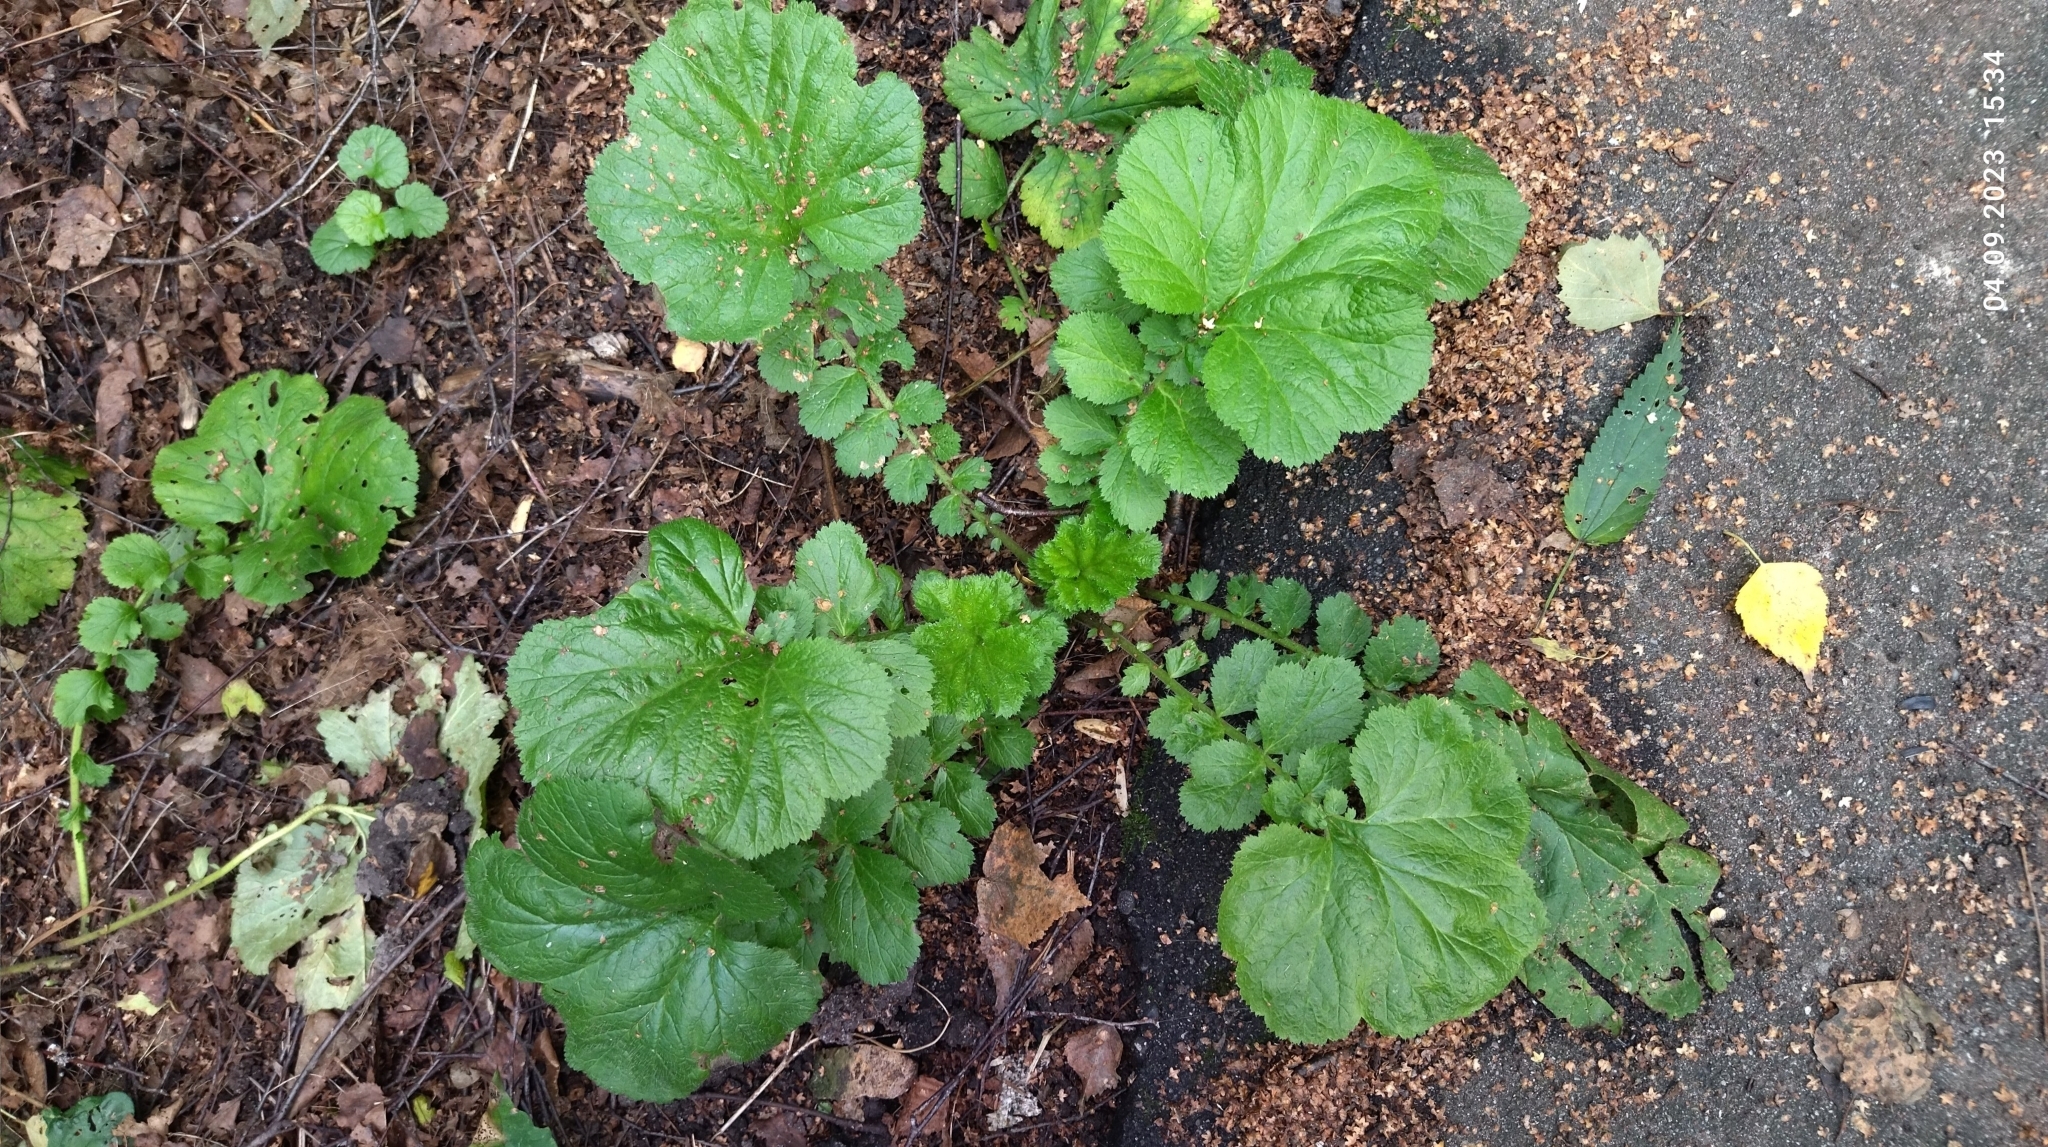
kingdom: Plantae
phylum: Tracheophyta
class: Magnoliopsida
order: Rosales
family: Rosaceae
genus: Geum
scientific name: Geum macrophyllum
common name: Large-leaved avens
